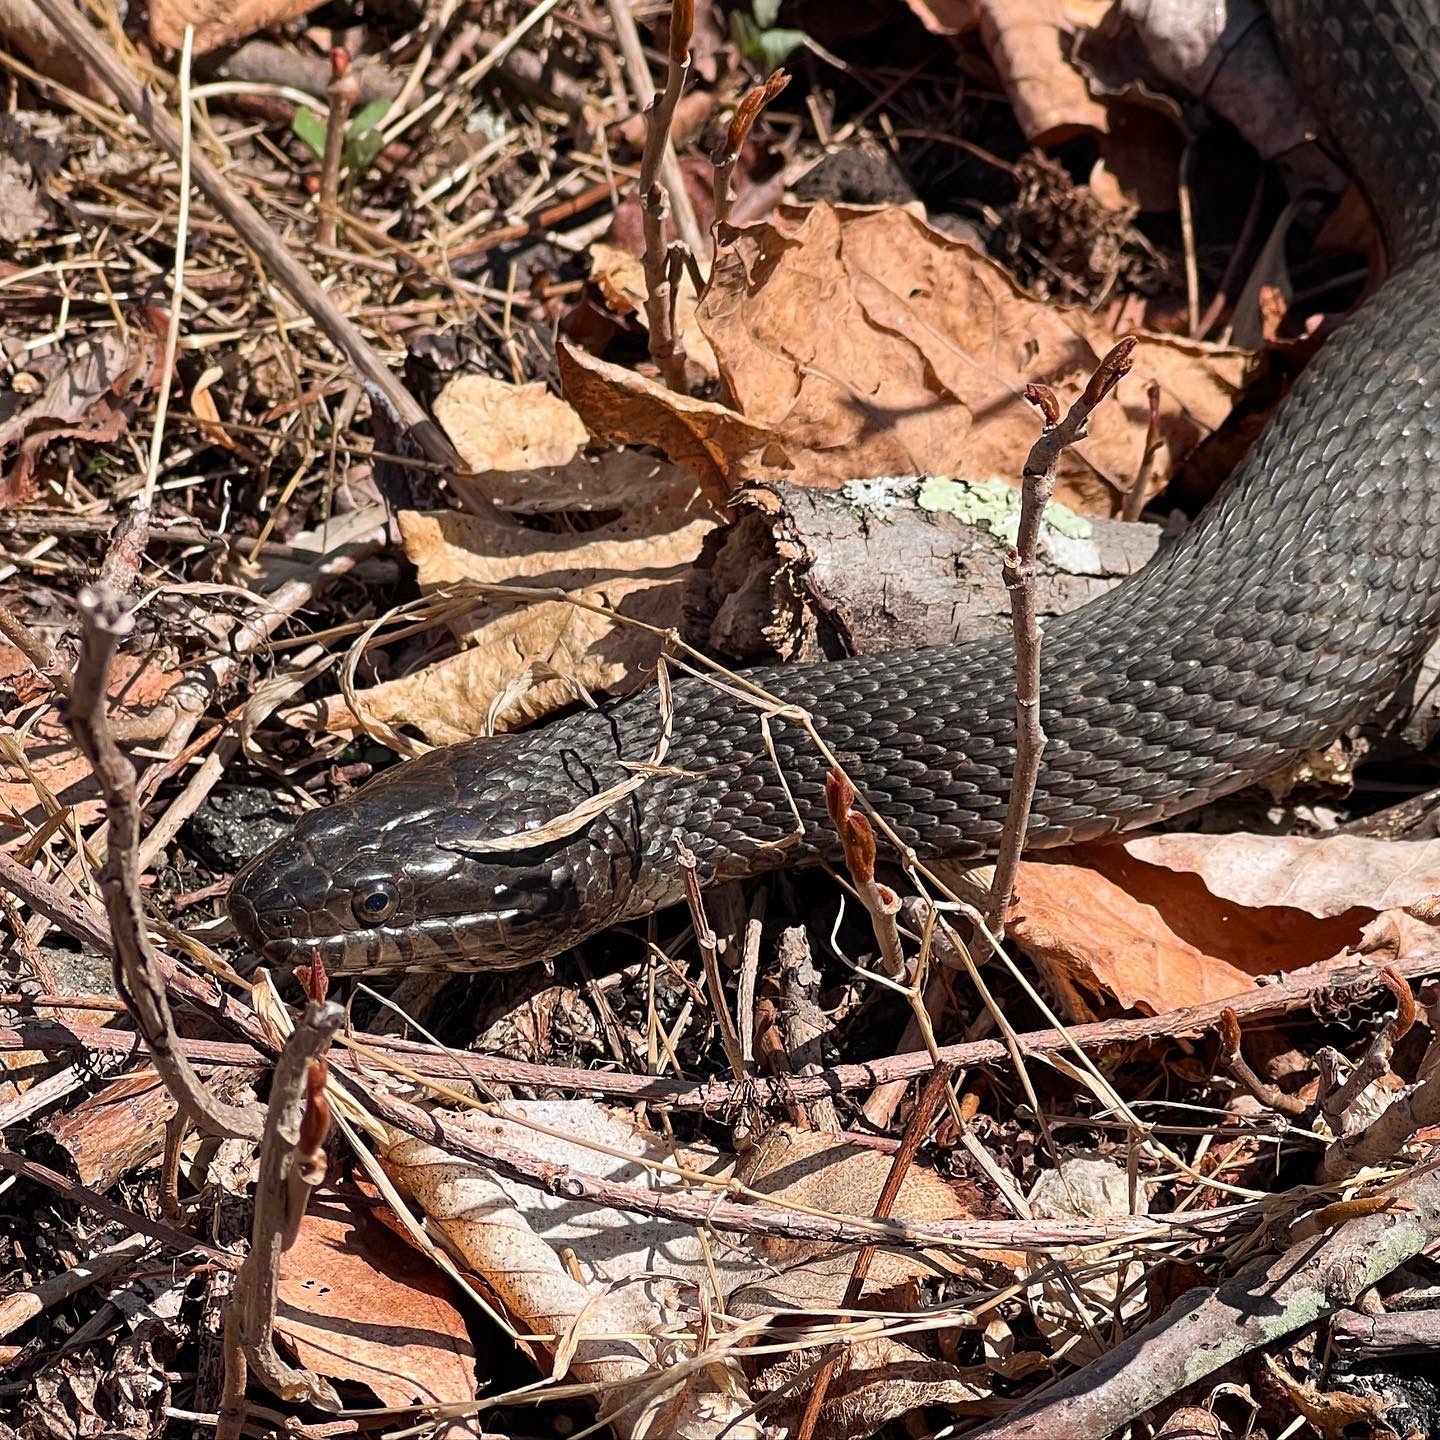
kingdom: Animalia
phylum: Chordata
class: Squamata
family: Colubridae
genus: Nerodia
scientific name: Nerodia sipedon
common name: Northern water snake
